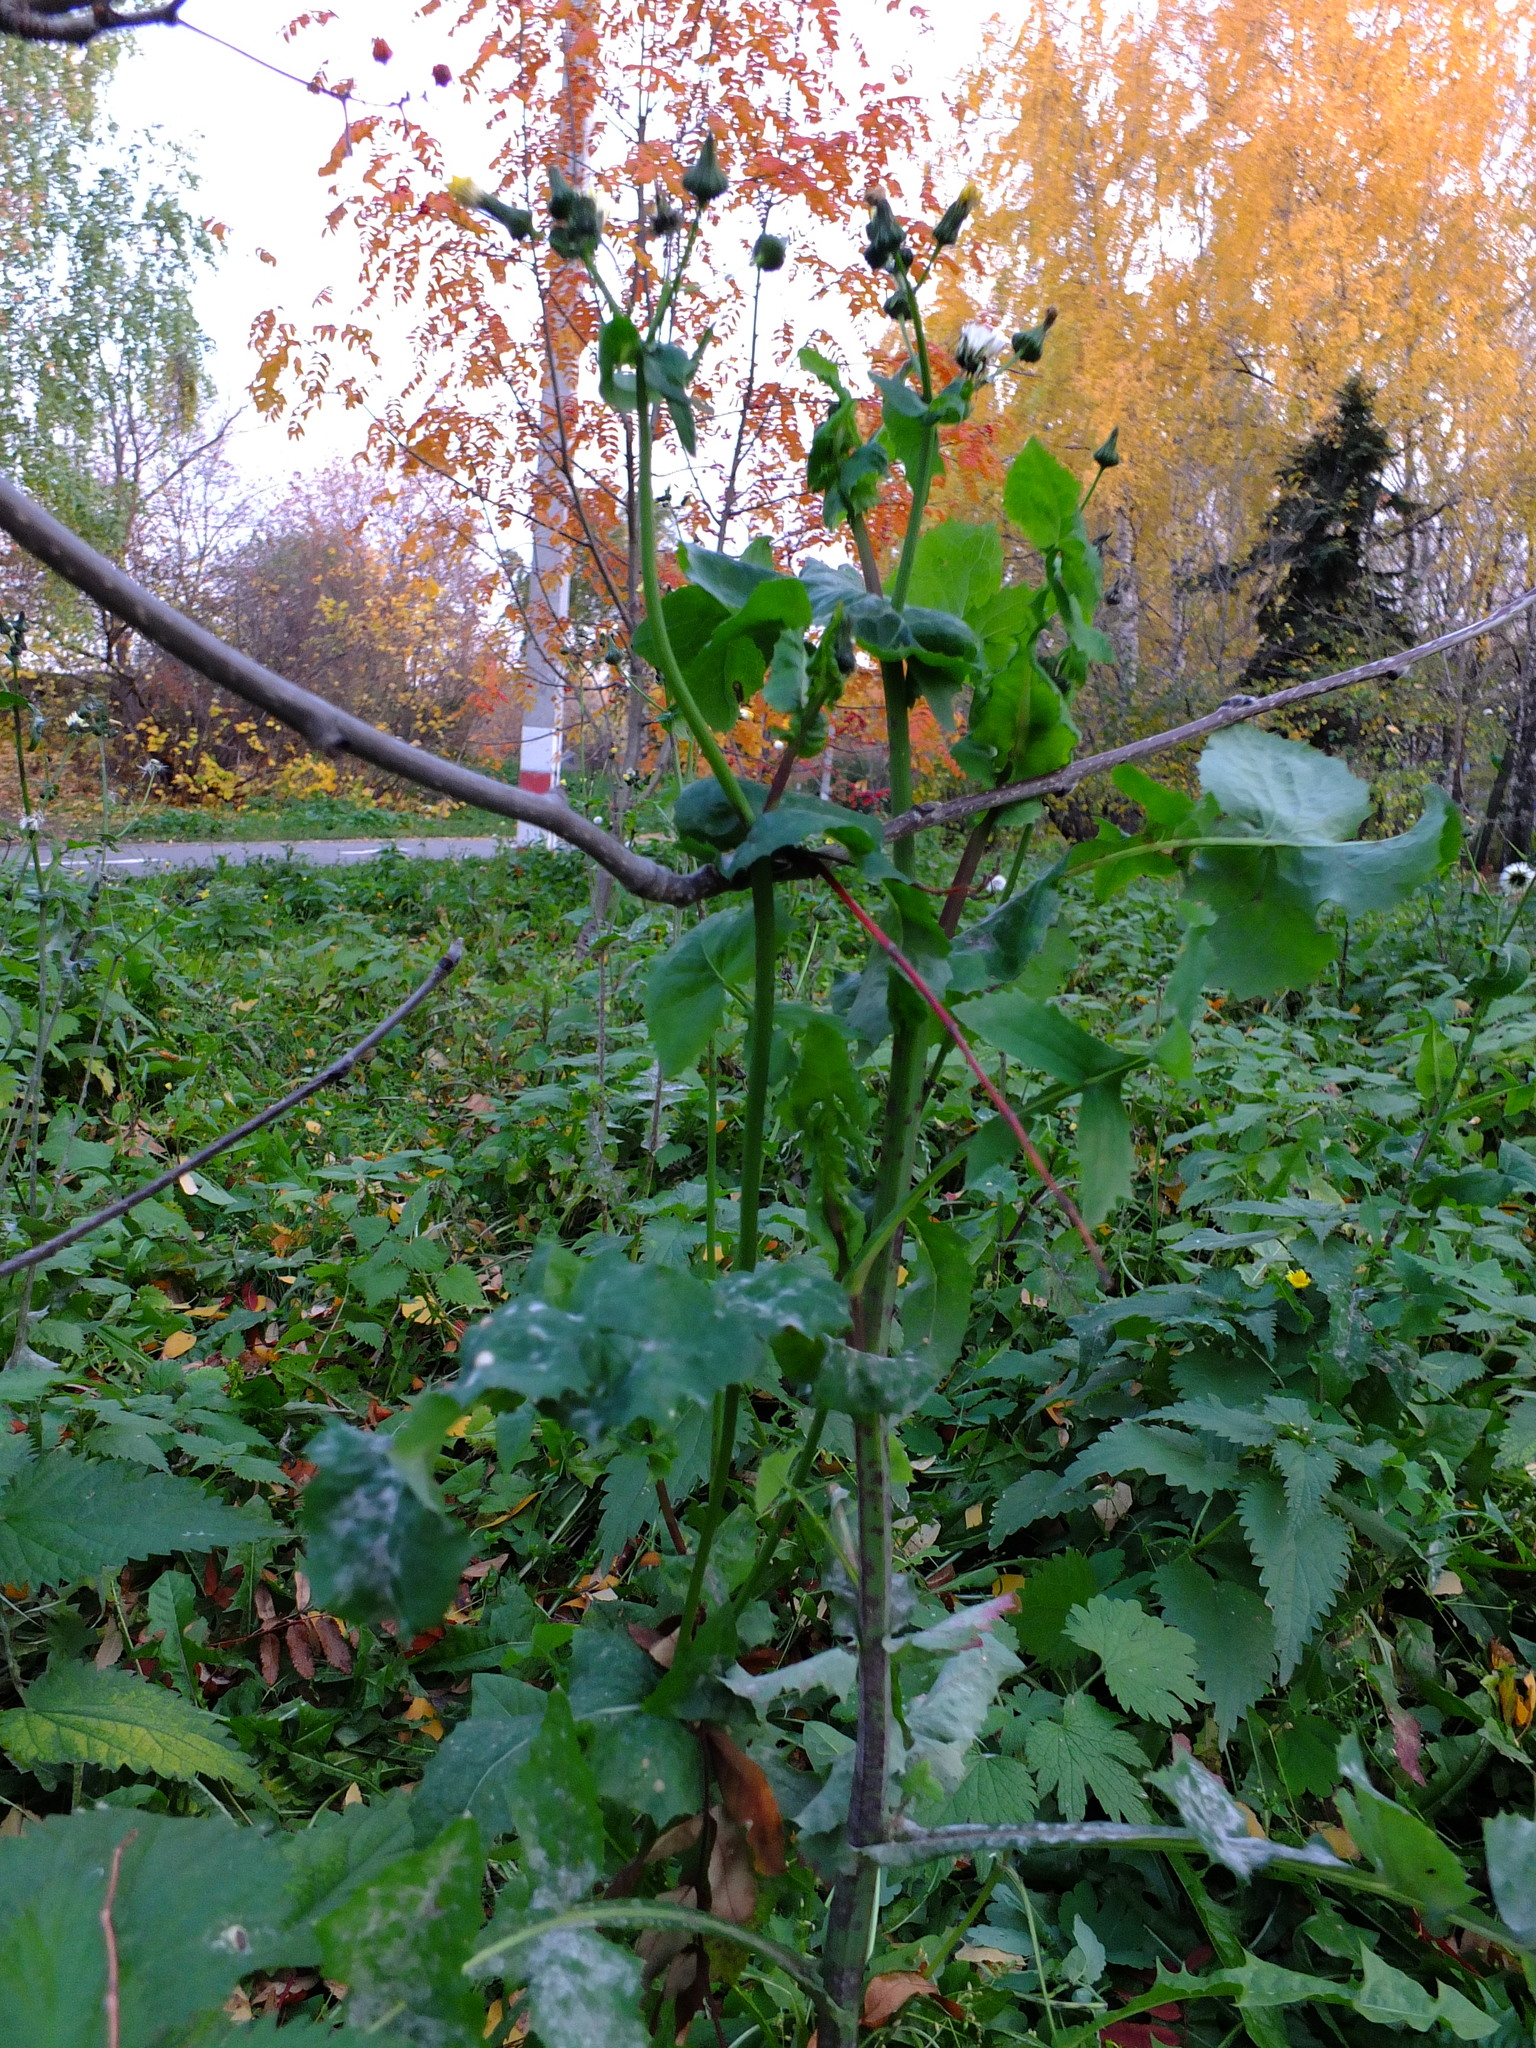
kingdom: Plantae
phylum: Tracheophyta
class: Magnoliopsida
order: Asterales
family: Asteraceae
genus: Sonchus
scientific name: Sonchus oleraceus
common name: Common sowthistle
